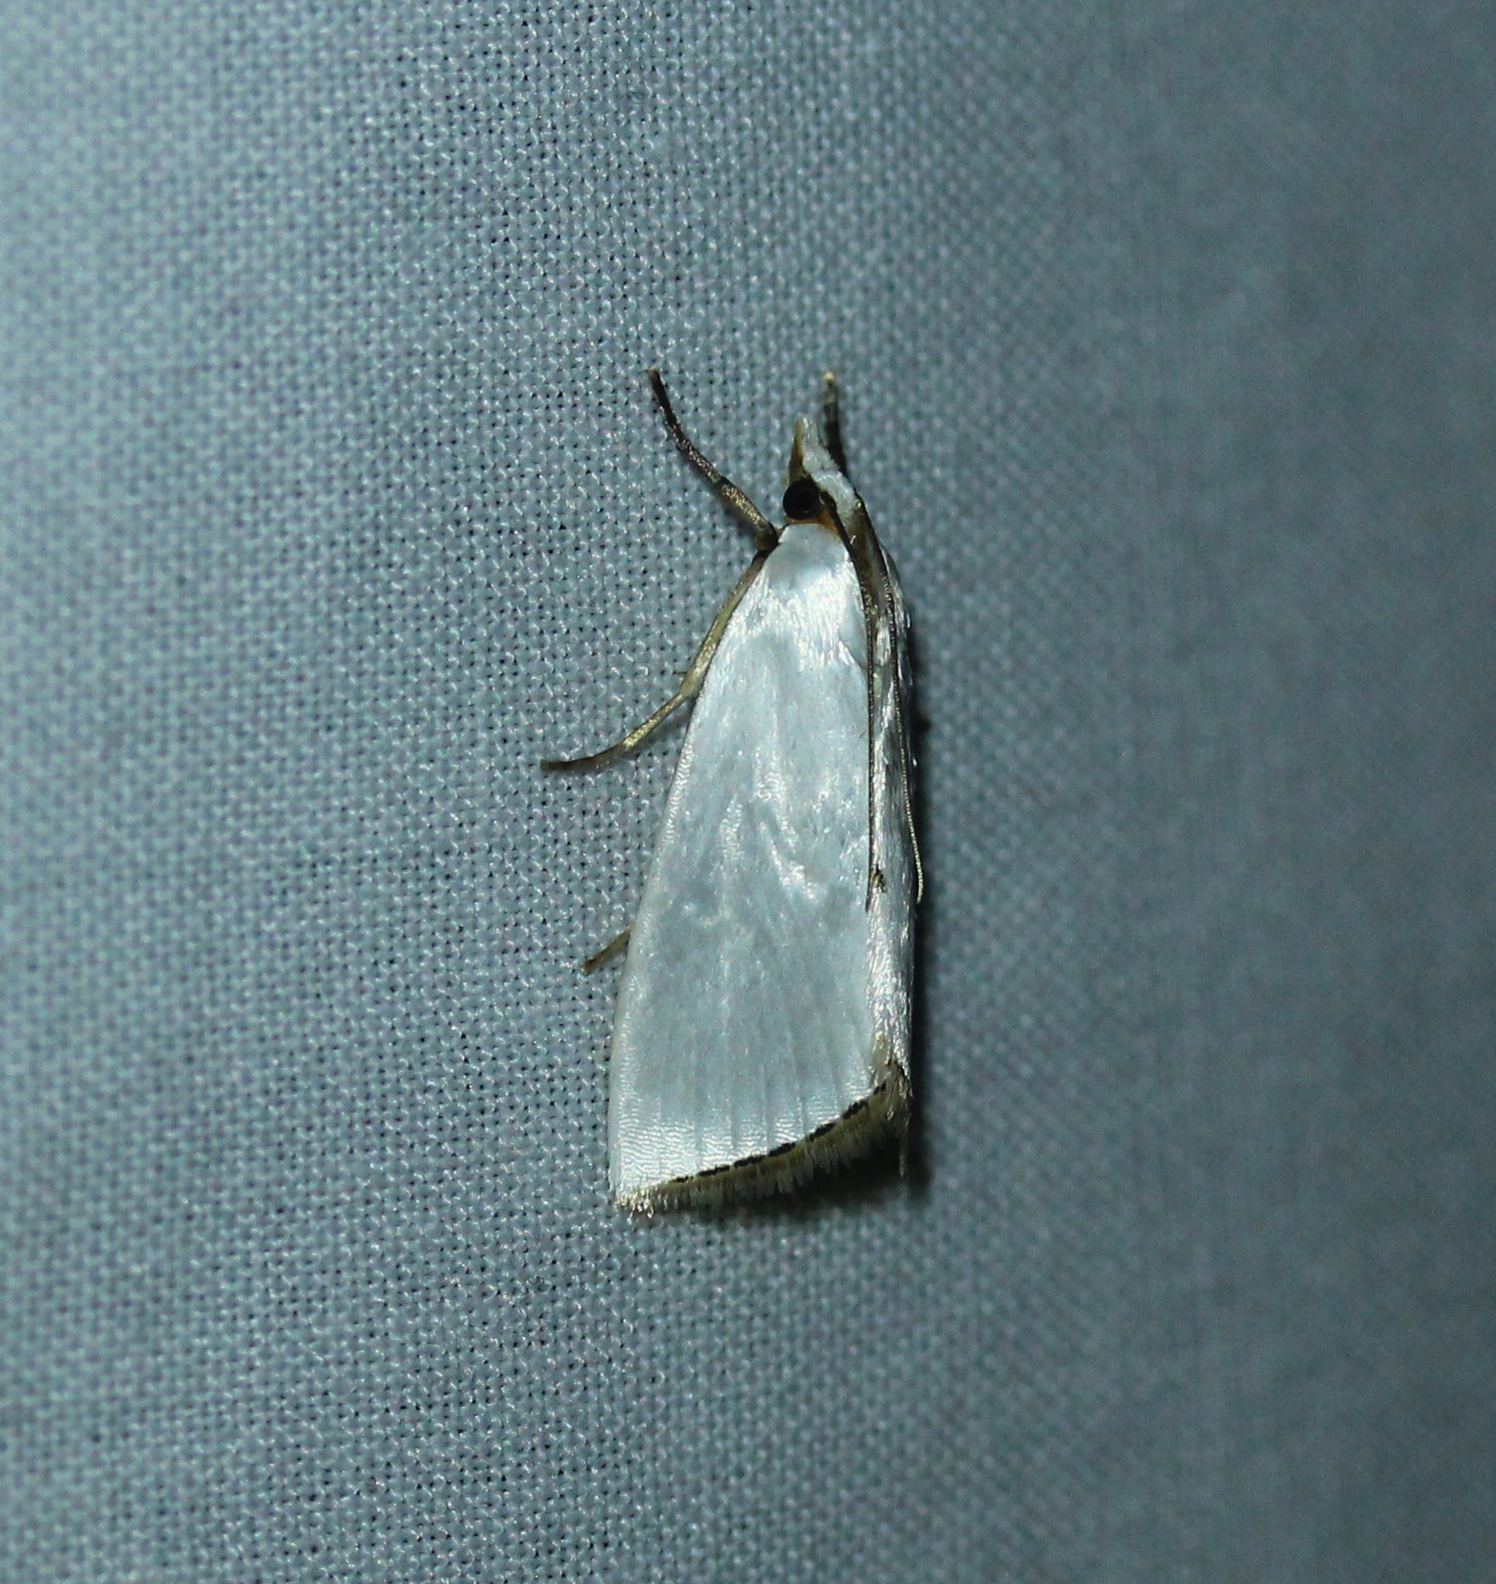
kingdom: Animalia
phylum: Arthropoda
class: Insecta
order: Lepidoptera
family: Crambidae
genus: Argyria
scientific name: Argyria nivalis
